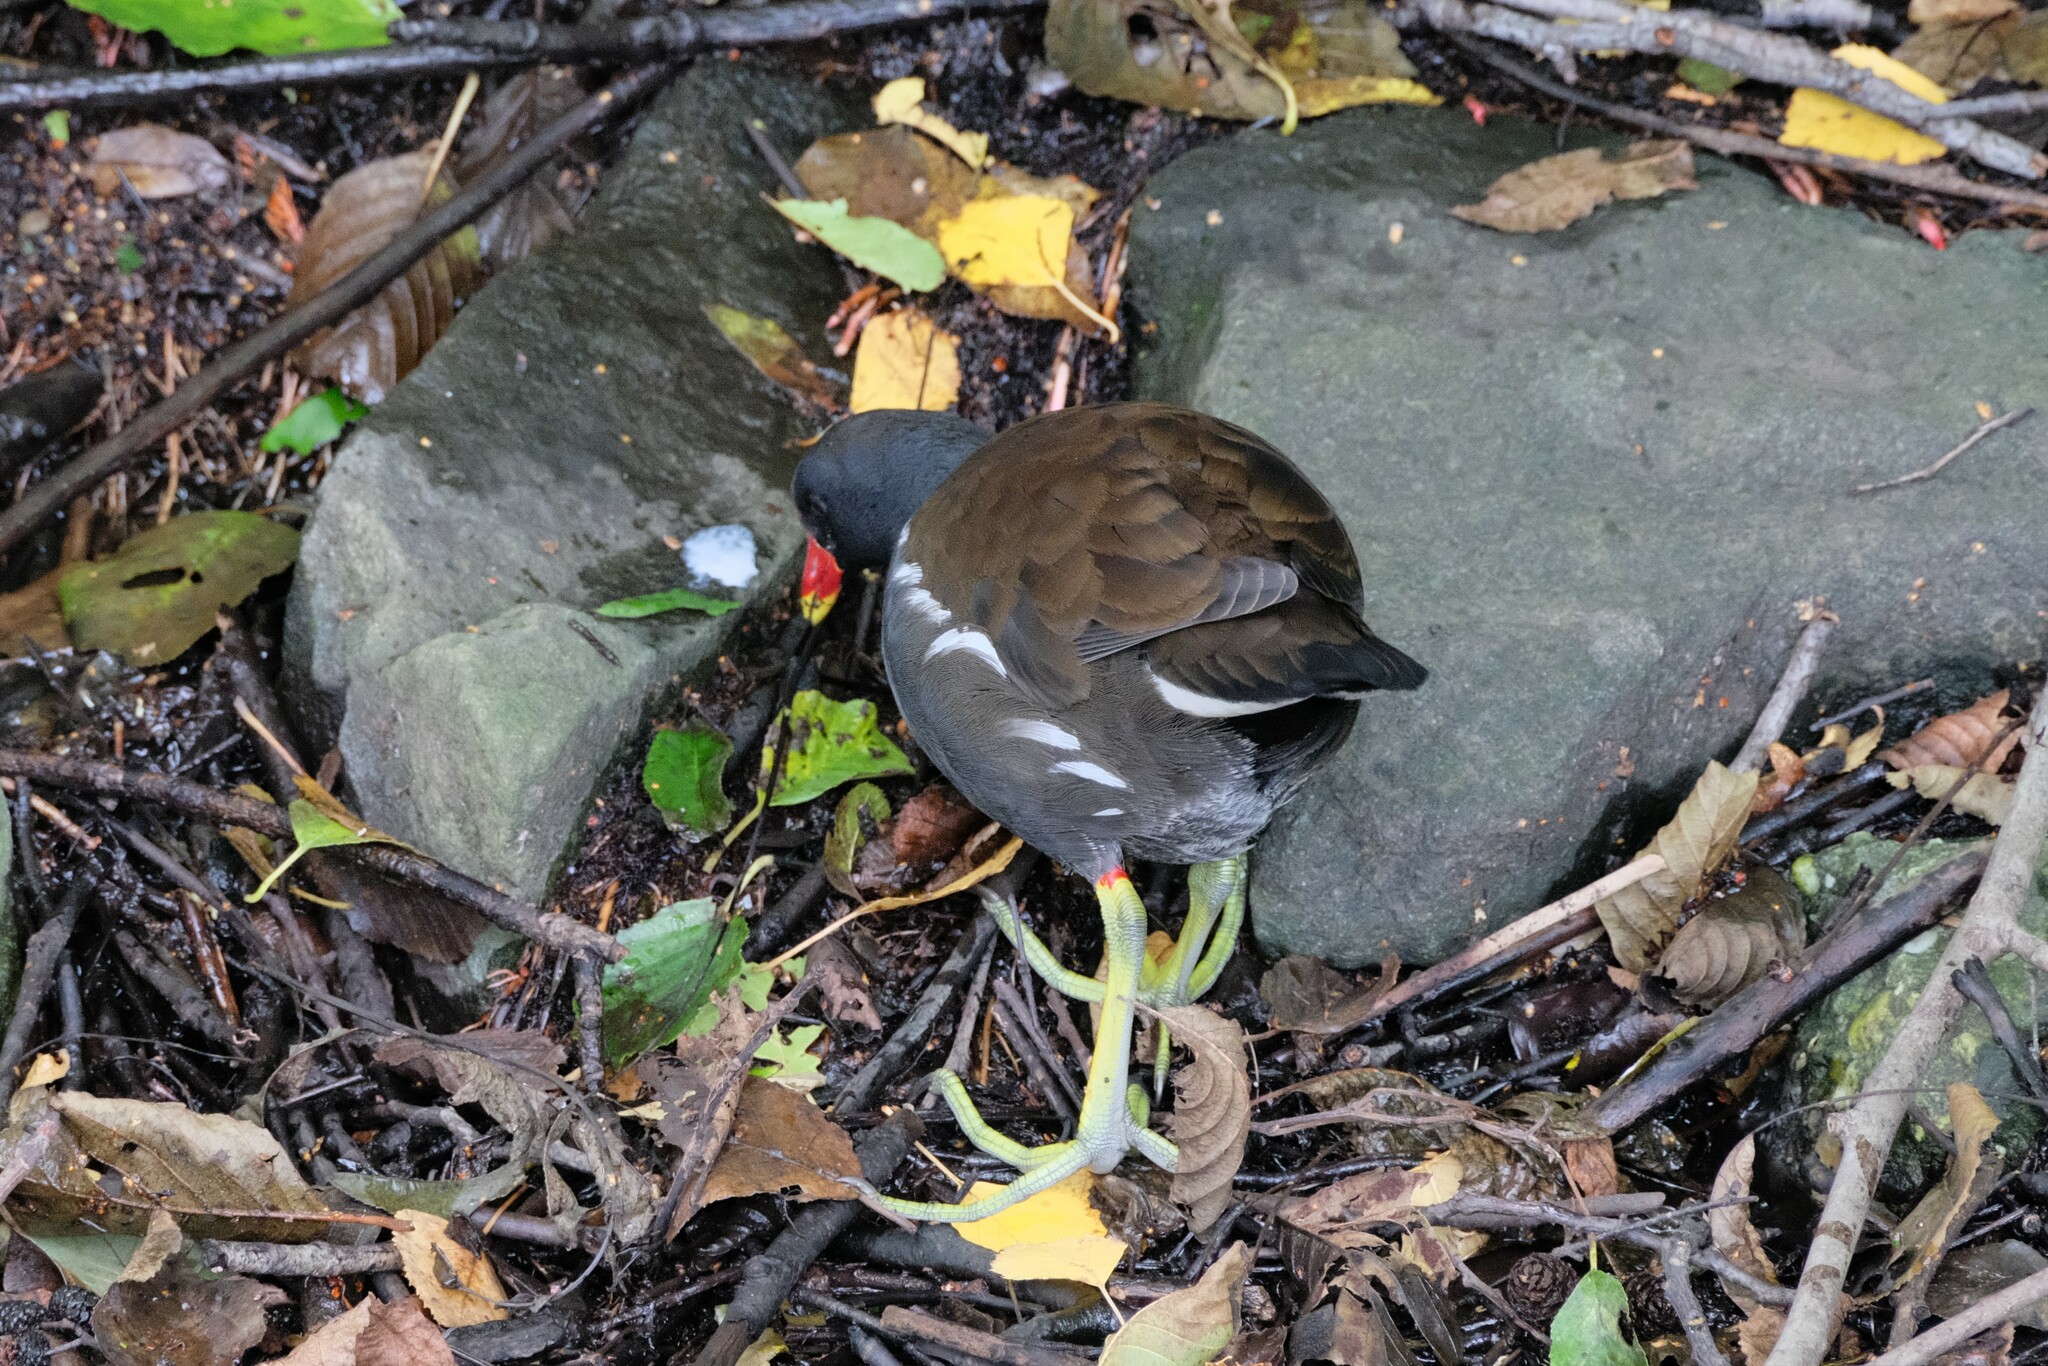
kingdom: Animalia
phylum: Chordata
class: Aves
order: Gruiformes
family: Rallidae
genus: Gallinula
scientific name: Gallinula chloropus
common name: Common moorhen
